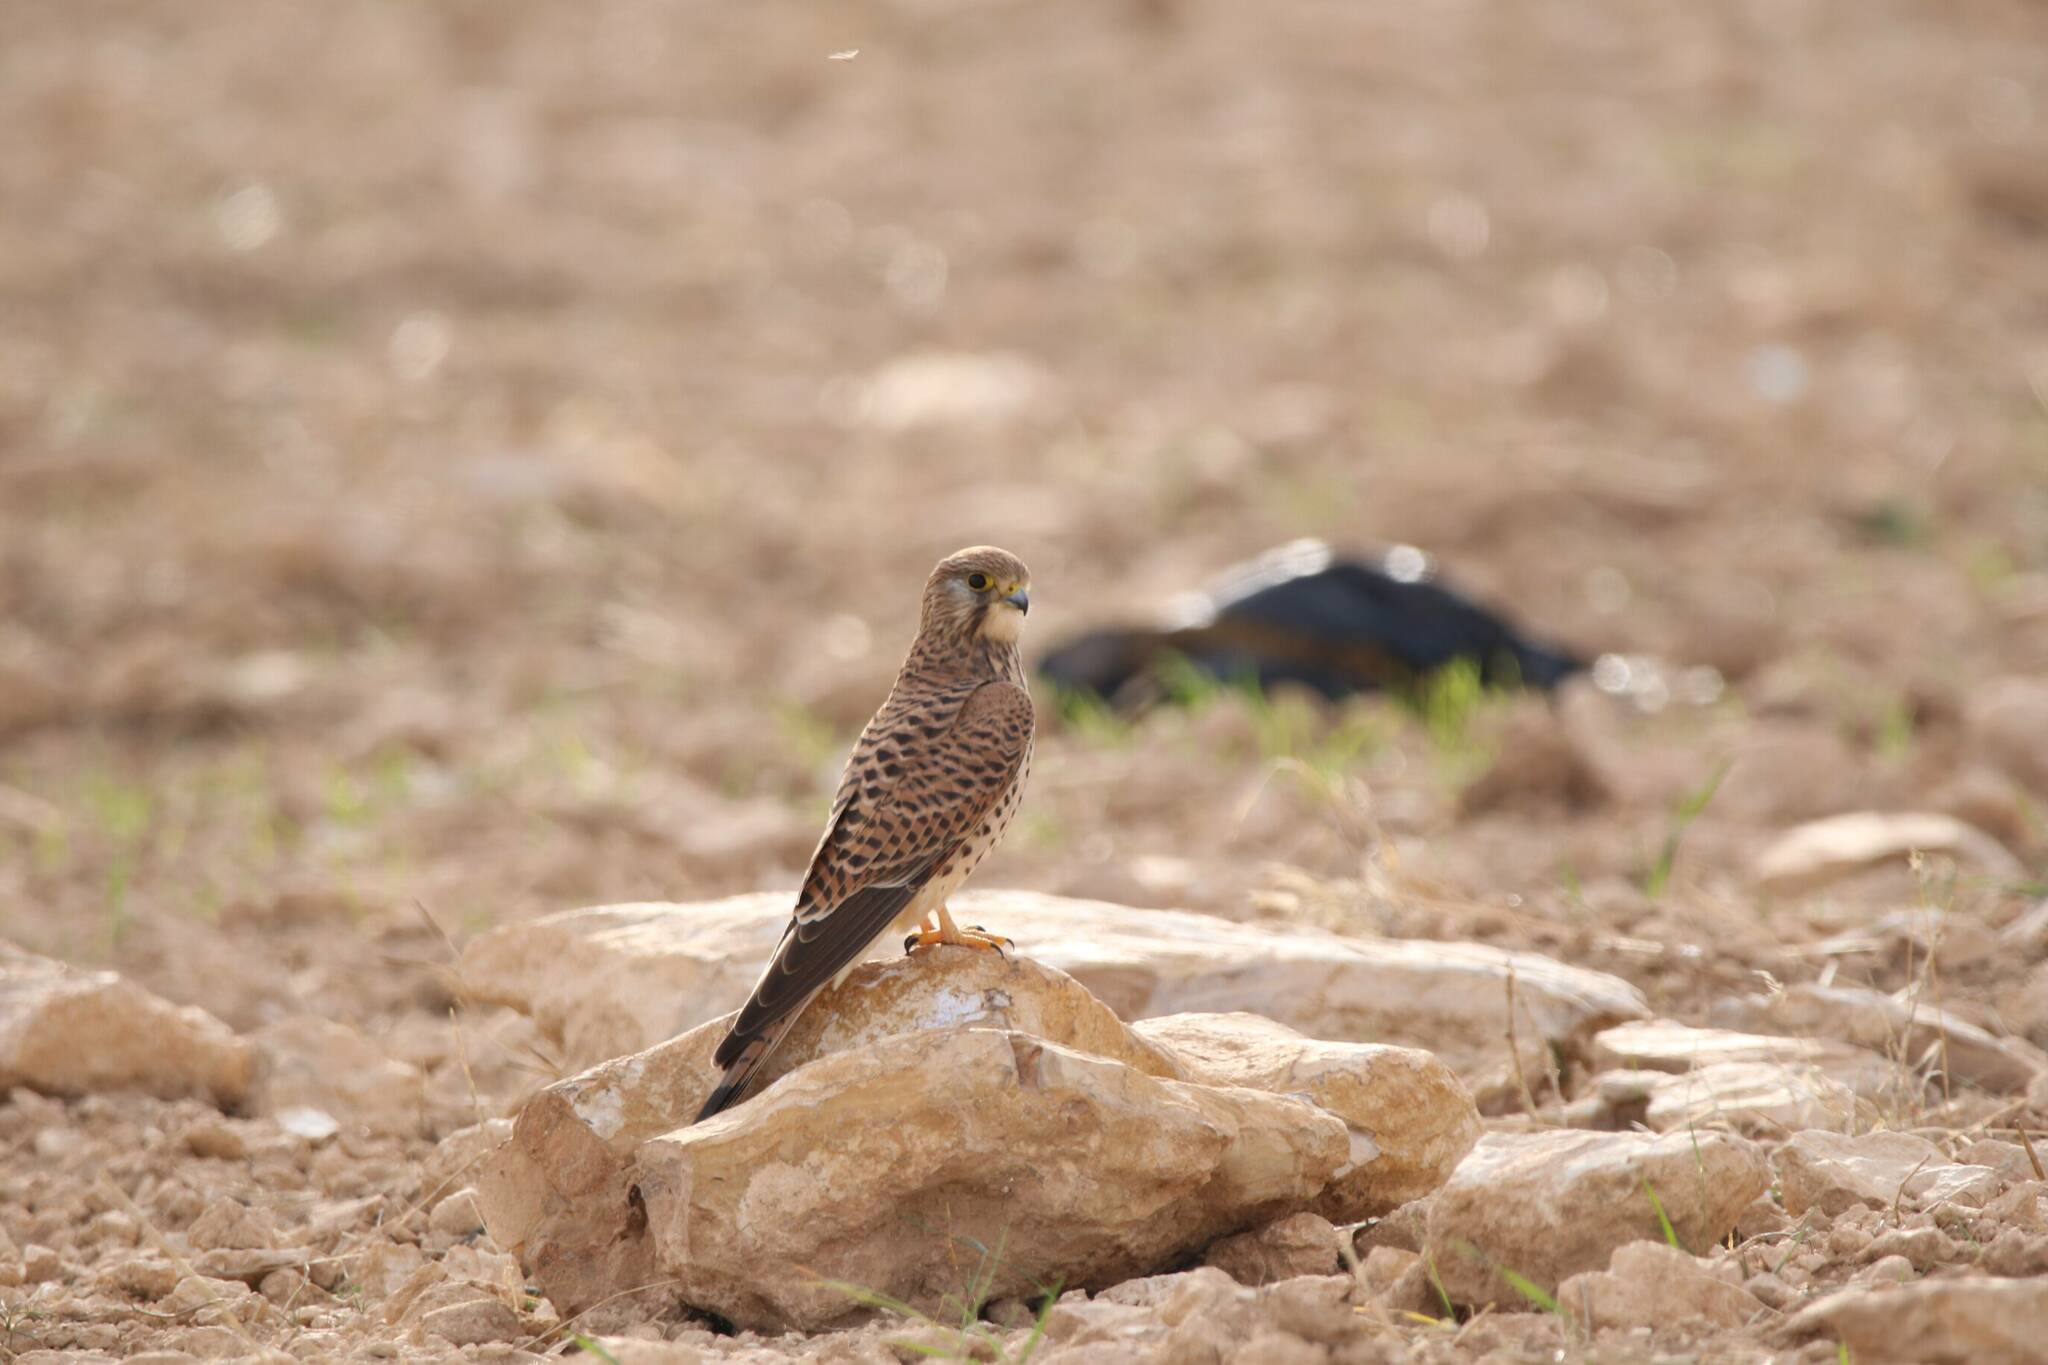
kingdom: Animalia
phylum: Chordata
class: Aves
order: Falconiformes
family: Falconidae
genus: Falco
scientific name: Falco tinnunculus
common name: Common kestrel
